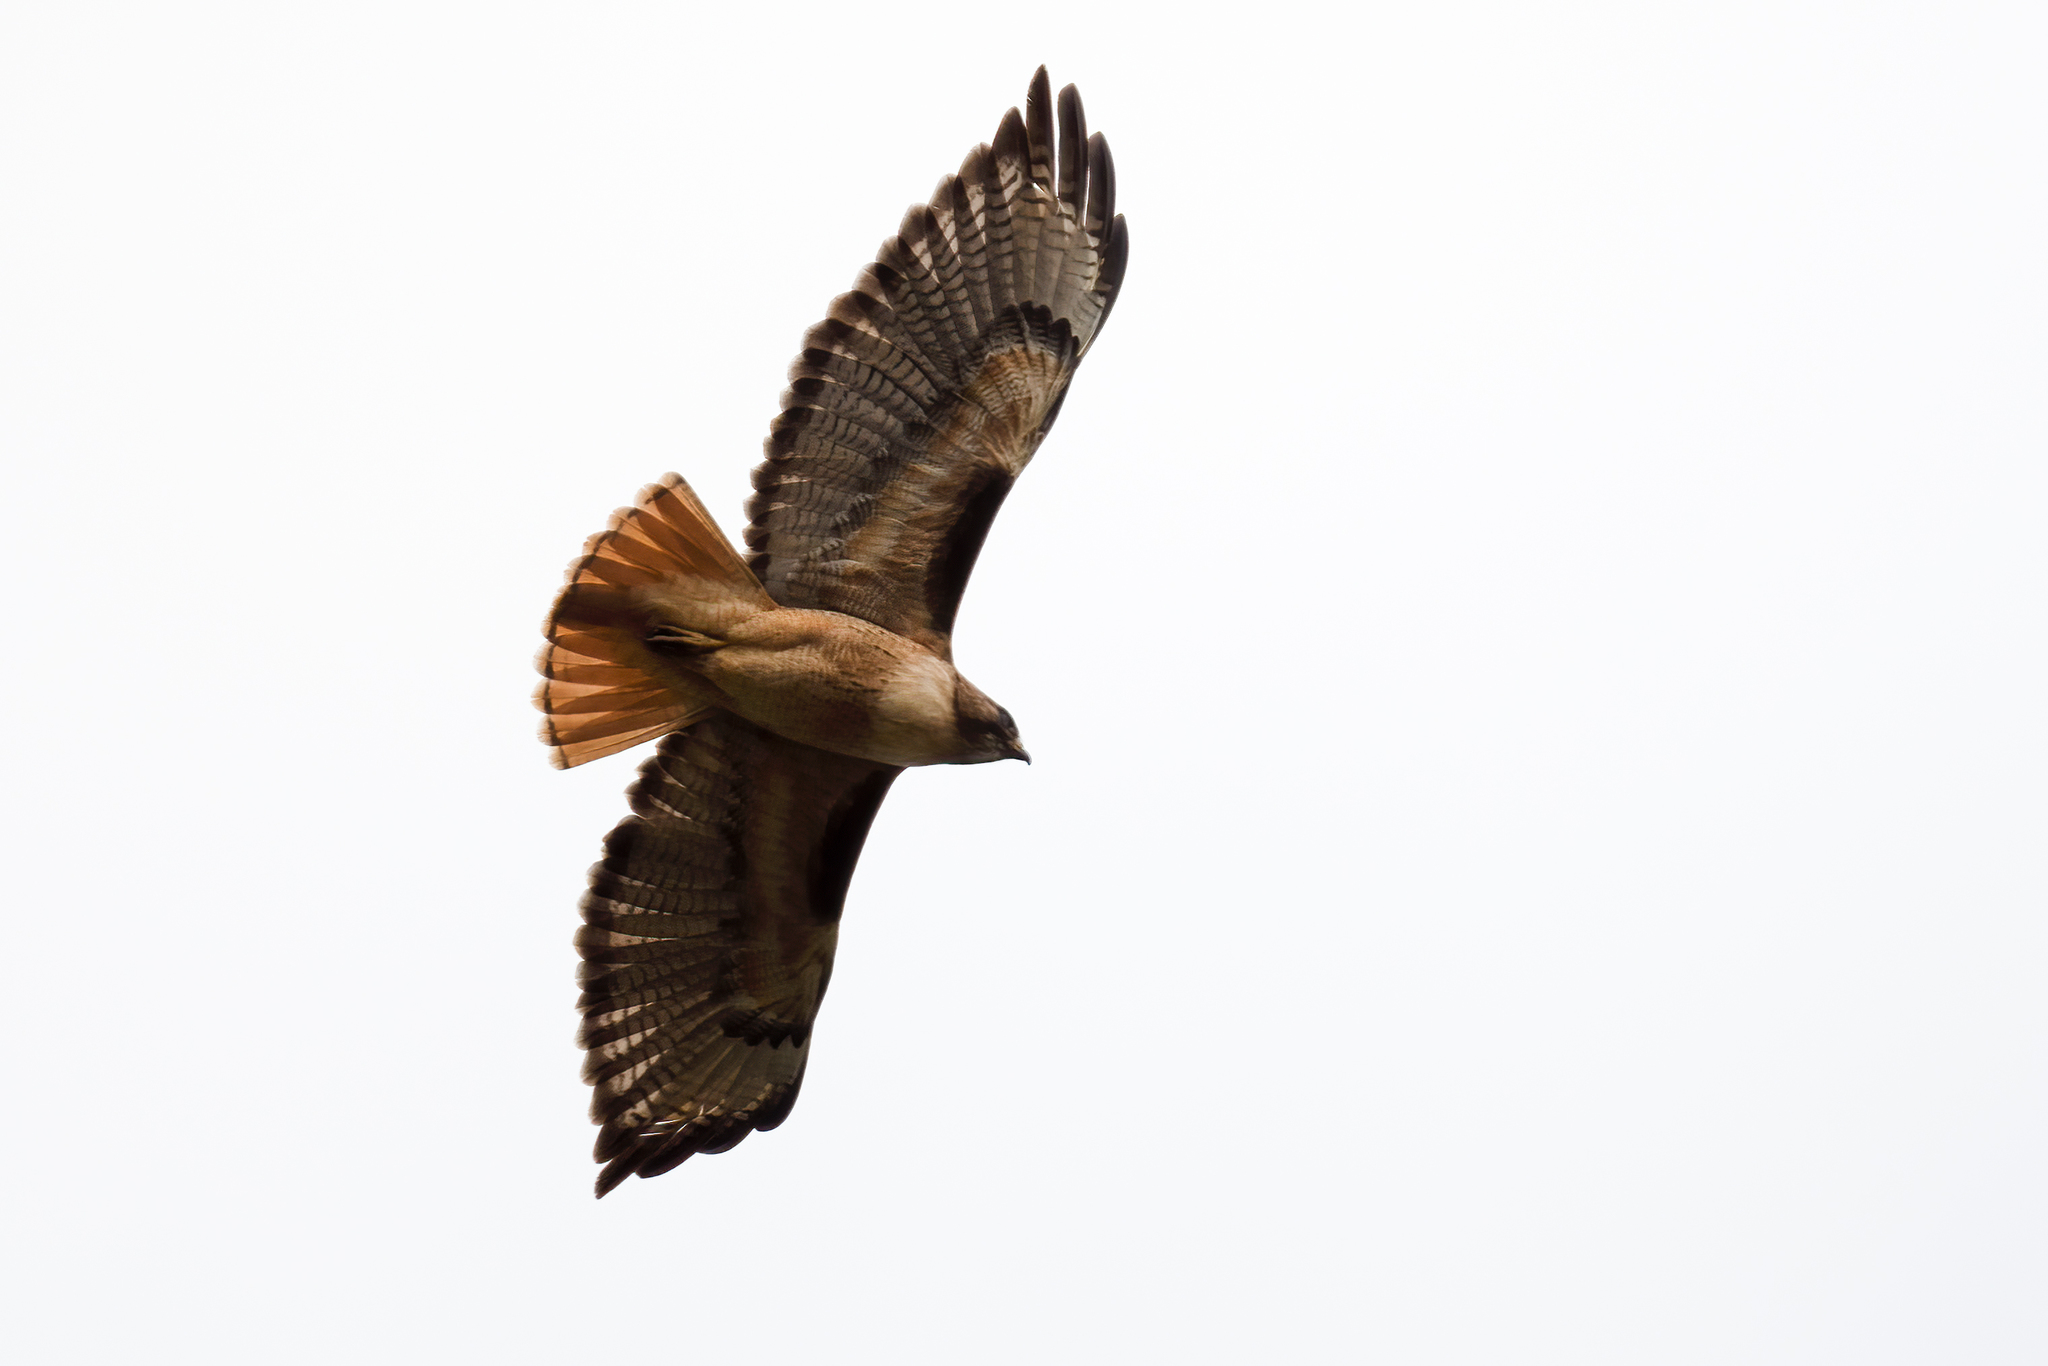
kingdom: Animalia
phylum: Chordata
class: Aves
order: Accipitriformes
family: Accipitridae
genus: Buteo
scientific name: Buteo jamaicensis
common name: Red-tailed hawk
